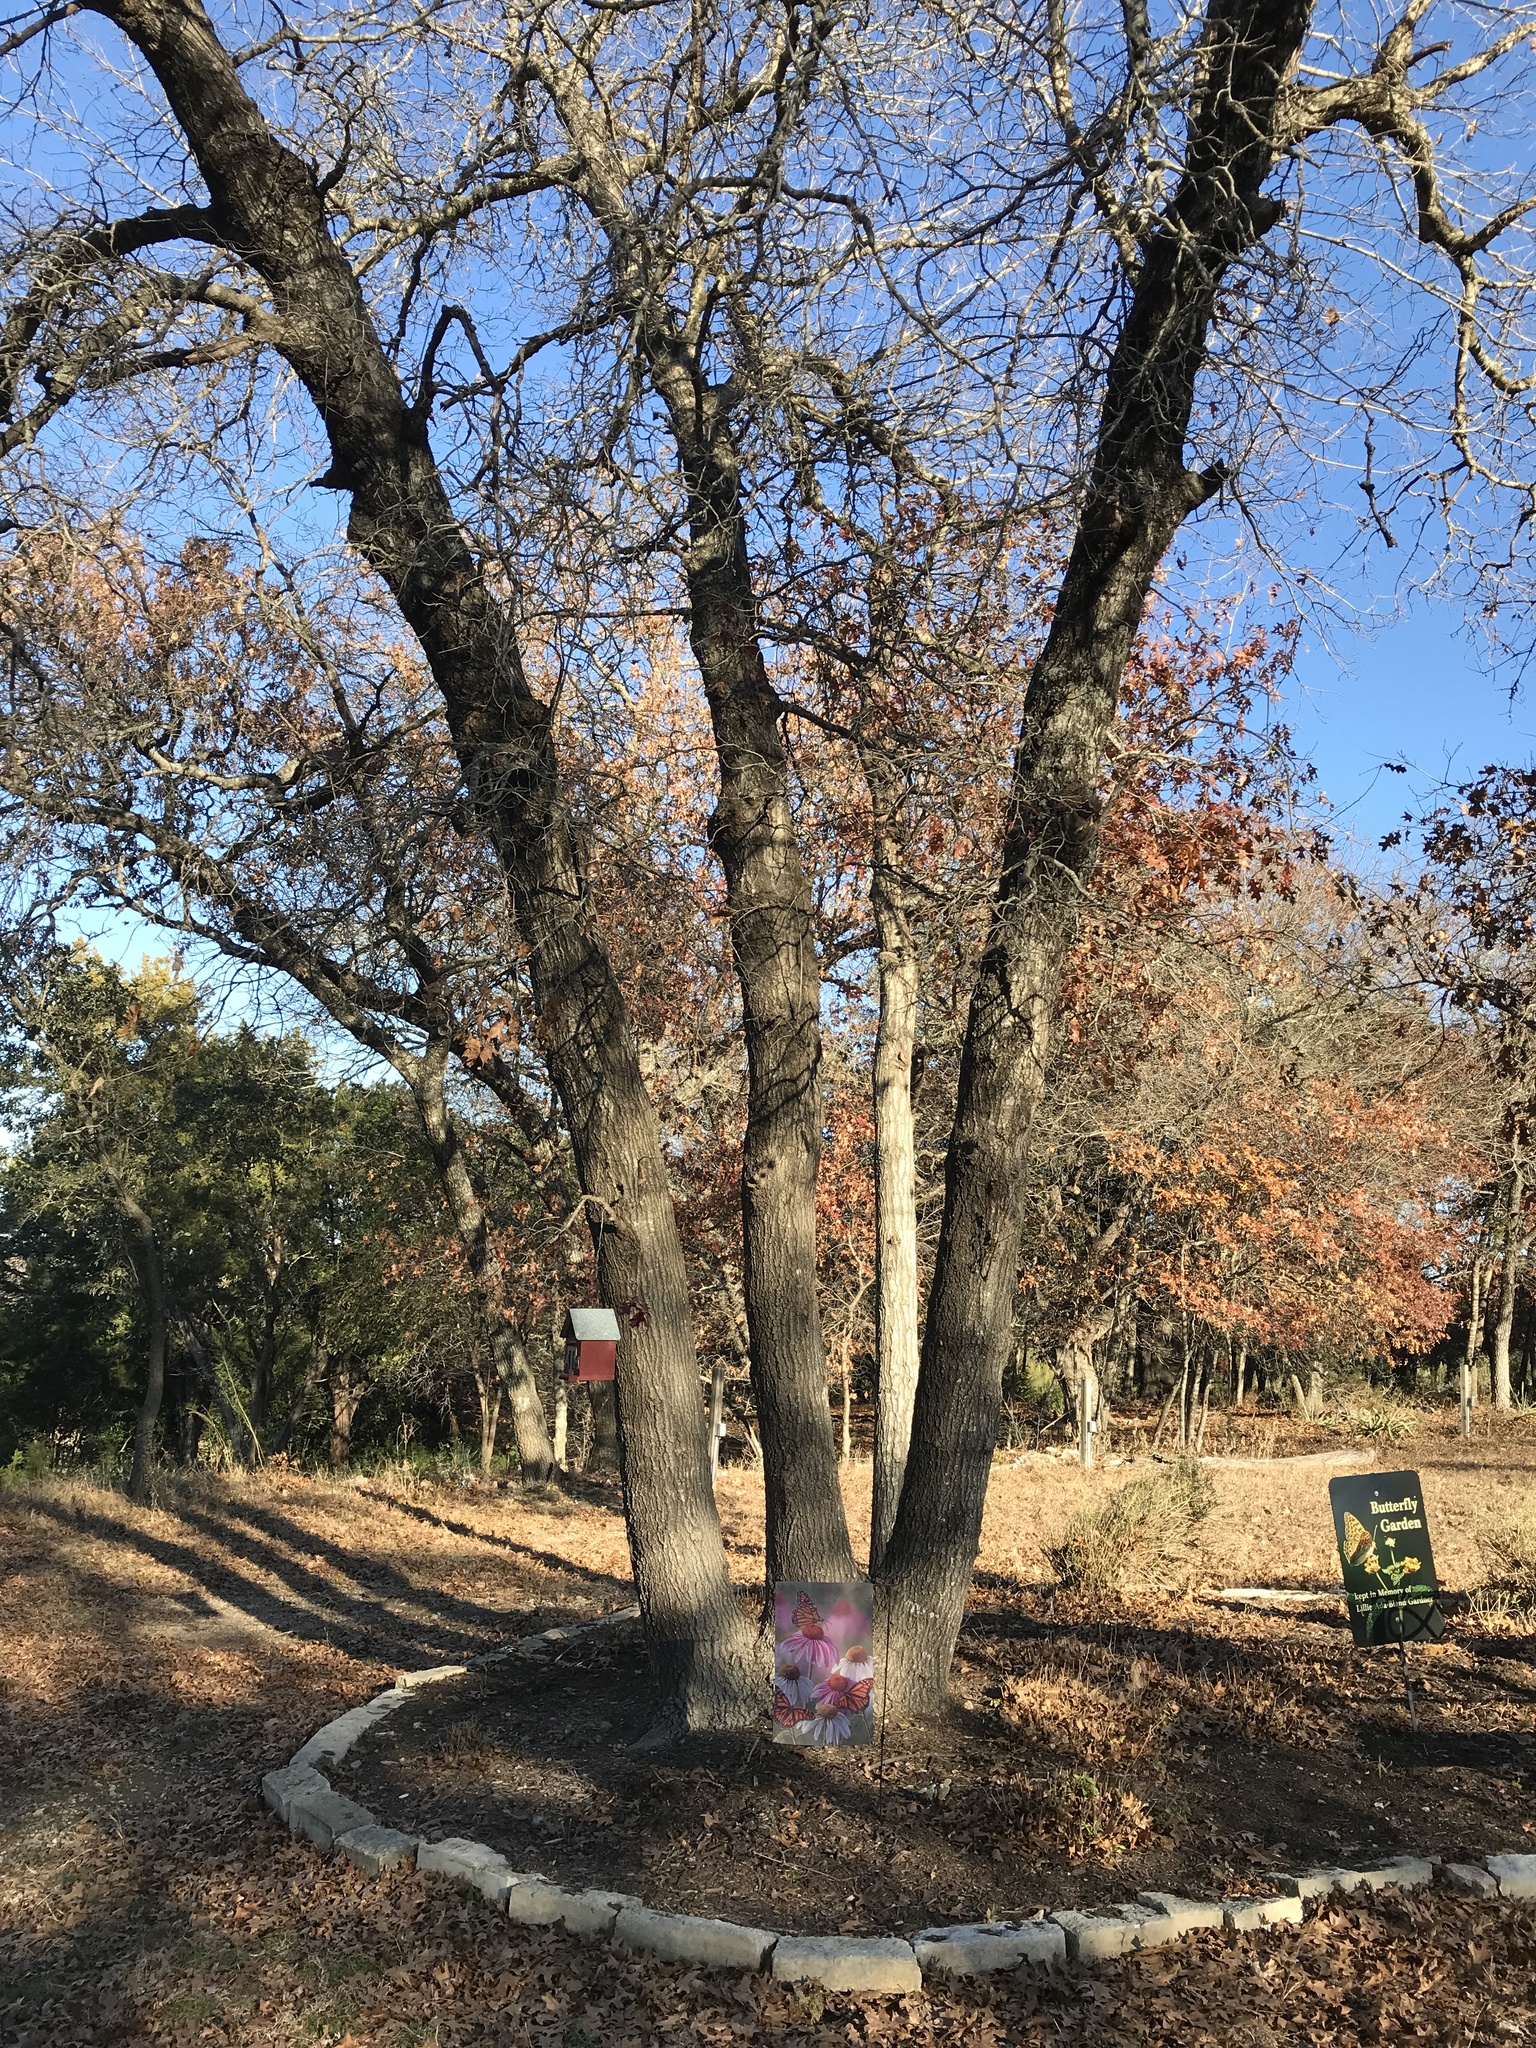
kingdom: Plantae
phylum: Tracheophyta
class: Magnoliopsida
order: Fagales
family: Fagaceae
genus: Quercus
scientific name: Quercus buckleyi
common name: Buckley oak
